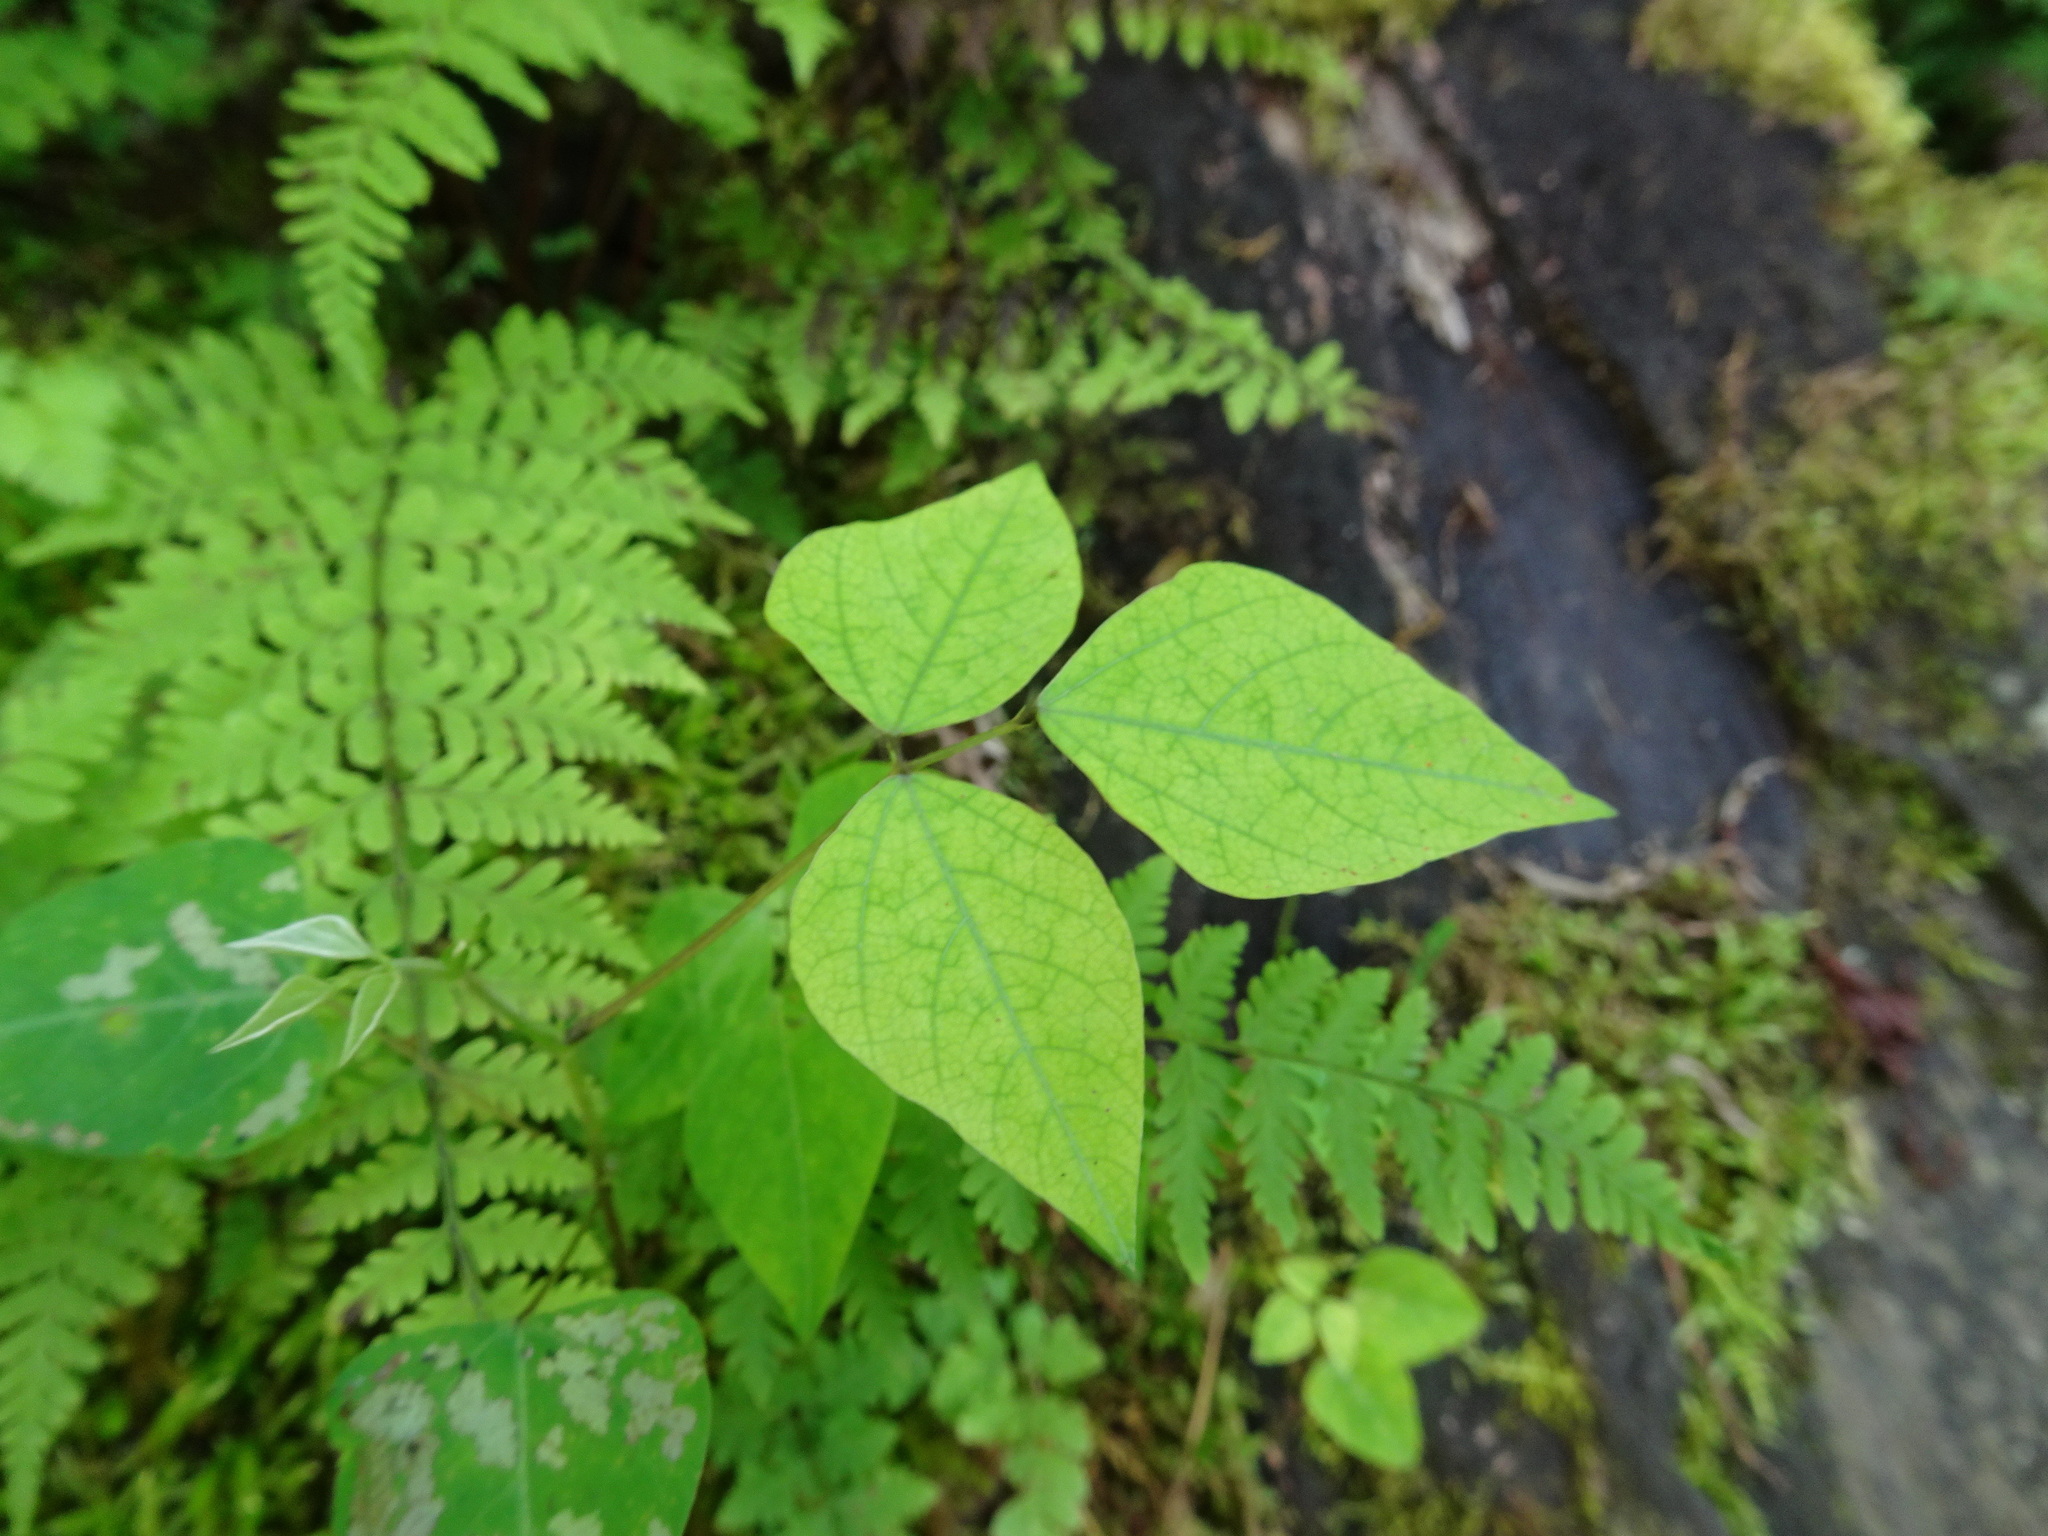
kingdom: Plantae
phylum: Tracheophyta
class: Magnoliopsida
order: Fabales
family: Fabaceae
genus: Amphicarpaea
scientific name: Amphicarpaea bracteata
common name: American hog peanut
